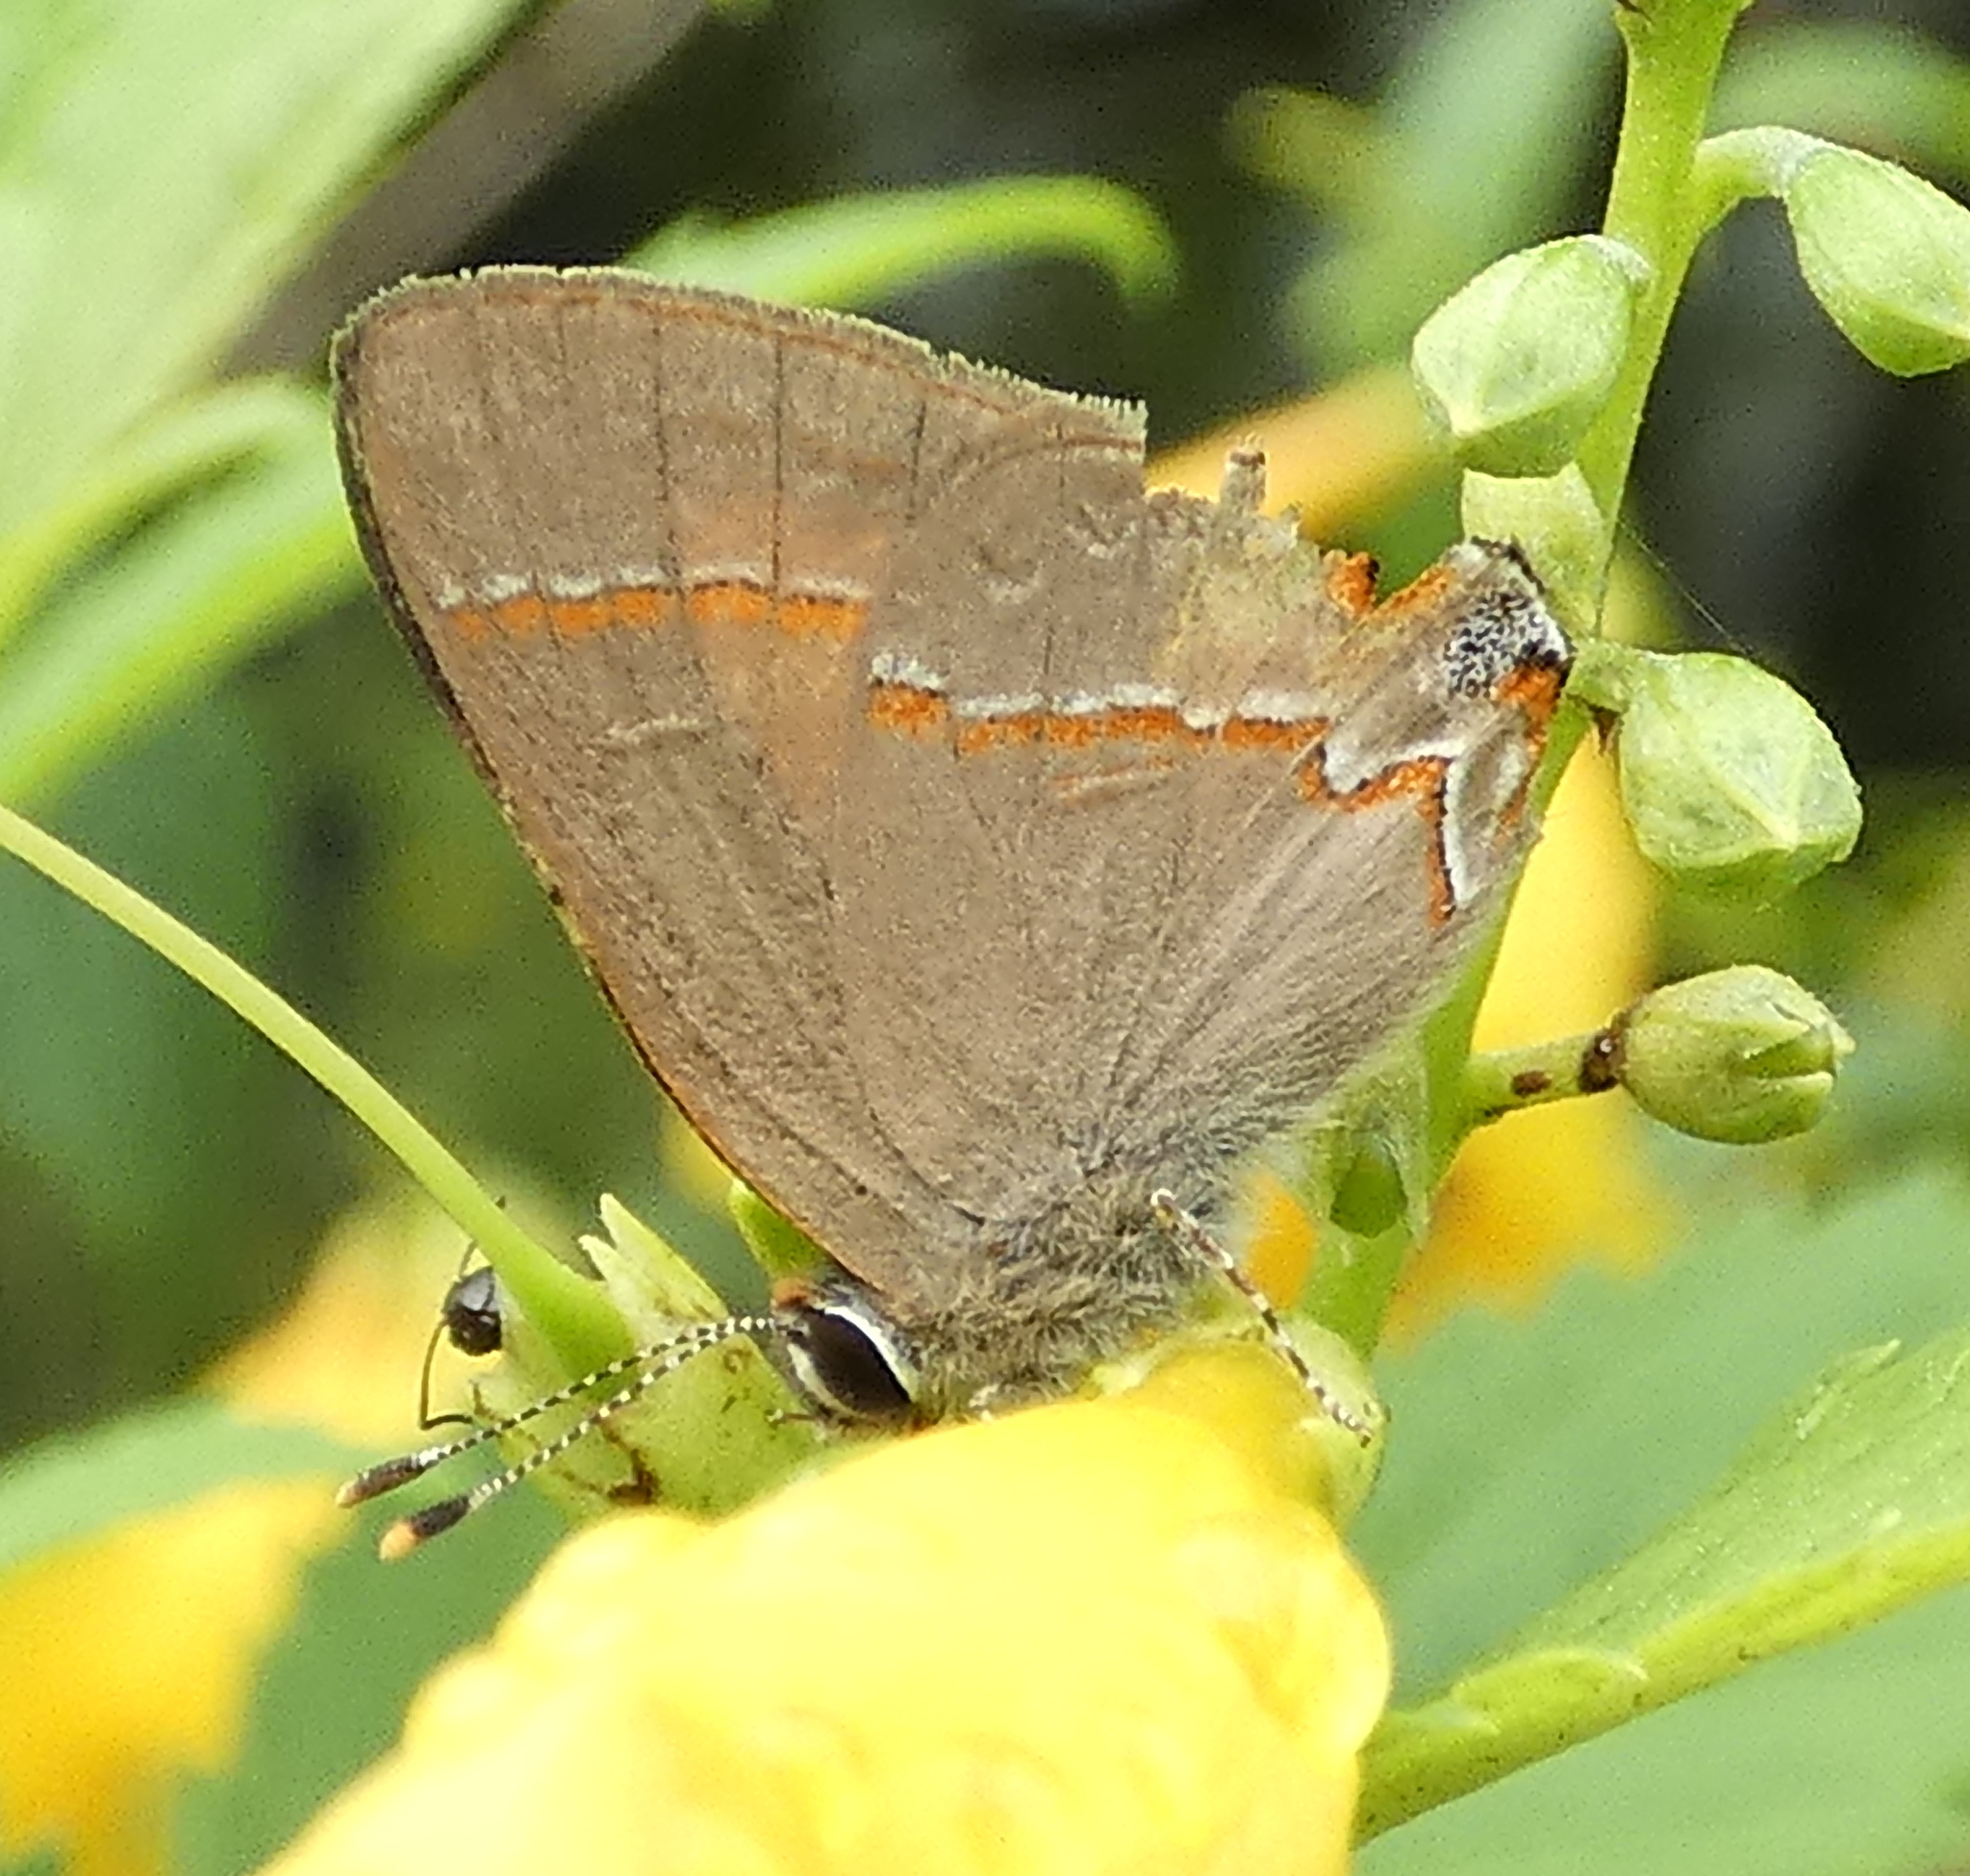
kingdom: Animalia
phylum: Arthropoda
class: Insecta
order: Lepidoptera
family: Lycaenidae
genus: Electrostrymon
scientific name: Electrostrymon endymion
